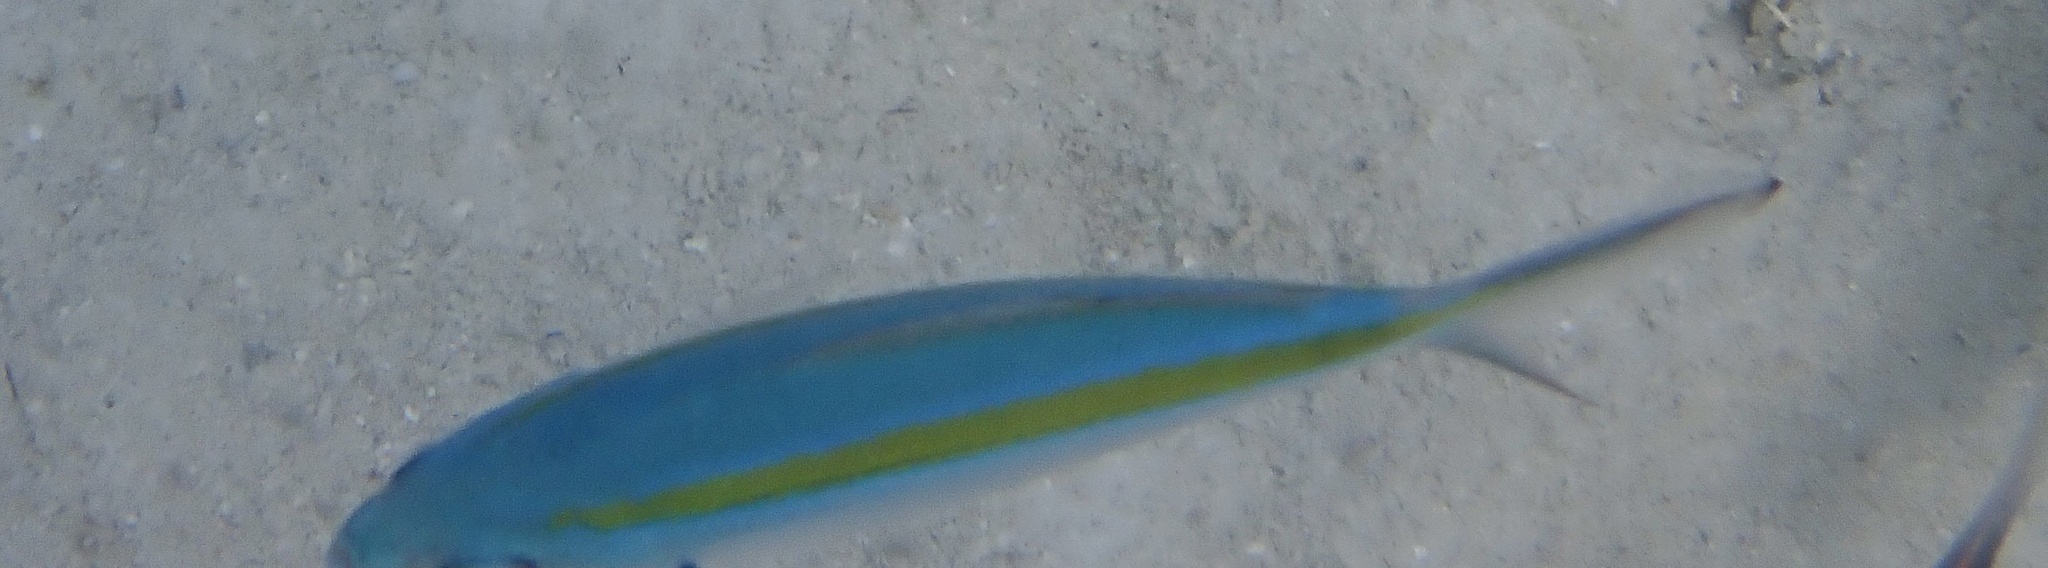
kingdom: Animalia
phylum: Chordata
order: Perciformes
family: Caesionidae
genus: Caesio
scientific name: Caesio caerulaurea
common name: Blue and gold fusilier
